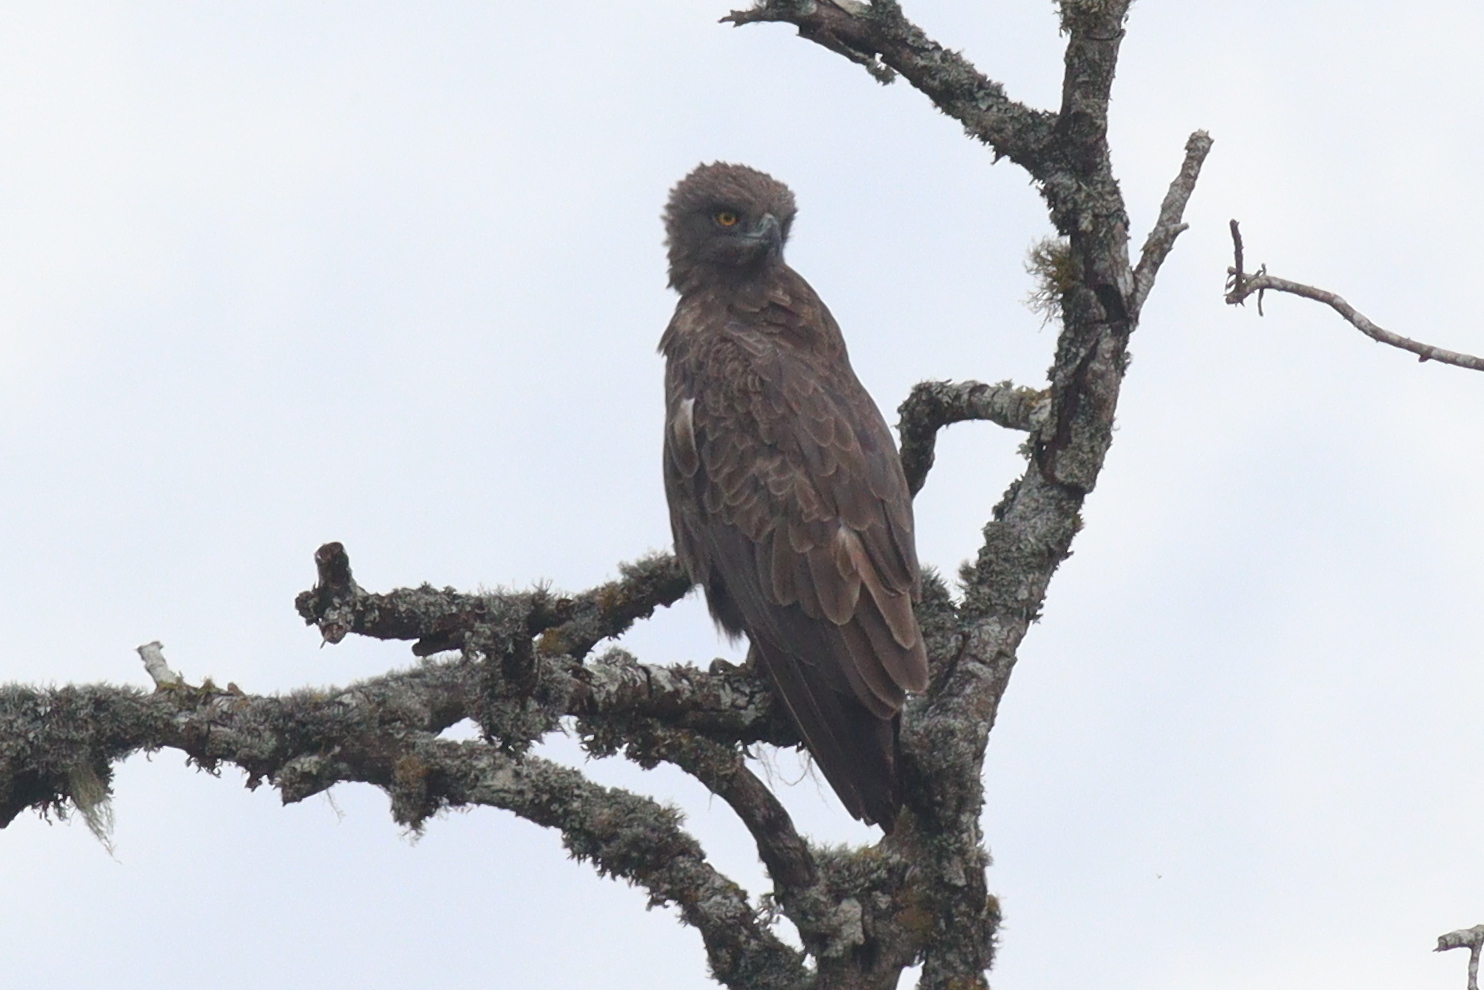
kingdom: Animalia
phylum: Chordata
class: Aves
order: Accipitriformes
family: Accipitridae
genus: Circaetus
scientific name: Circaetus cinereus
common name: Brown snake eagle
